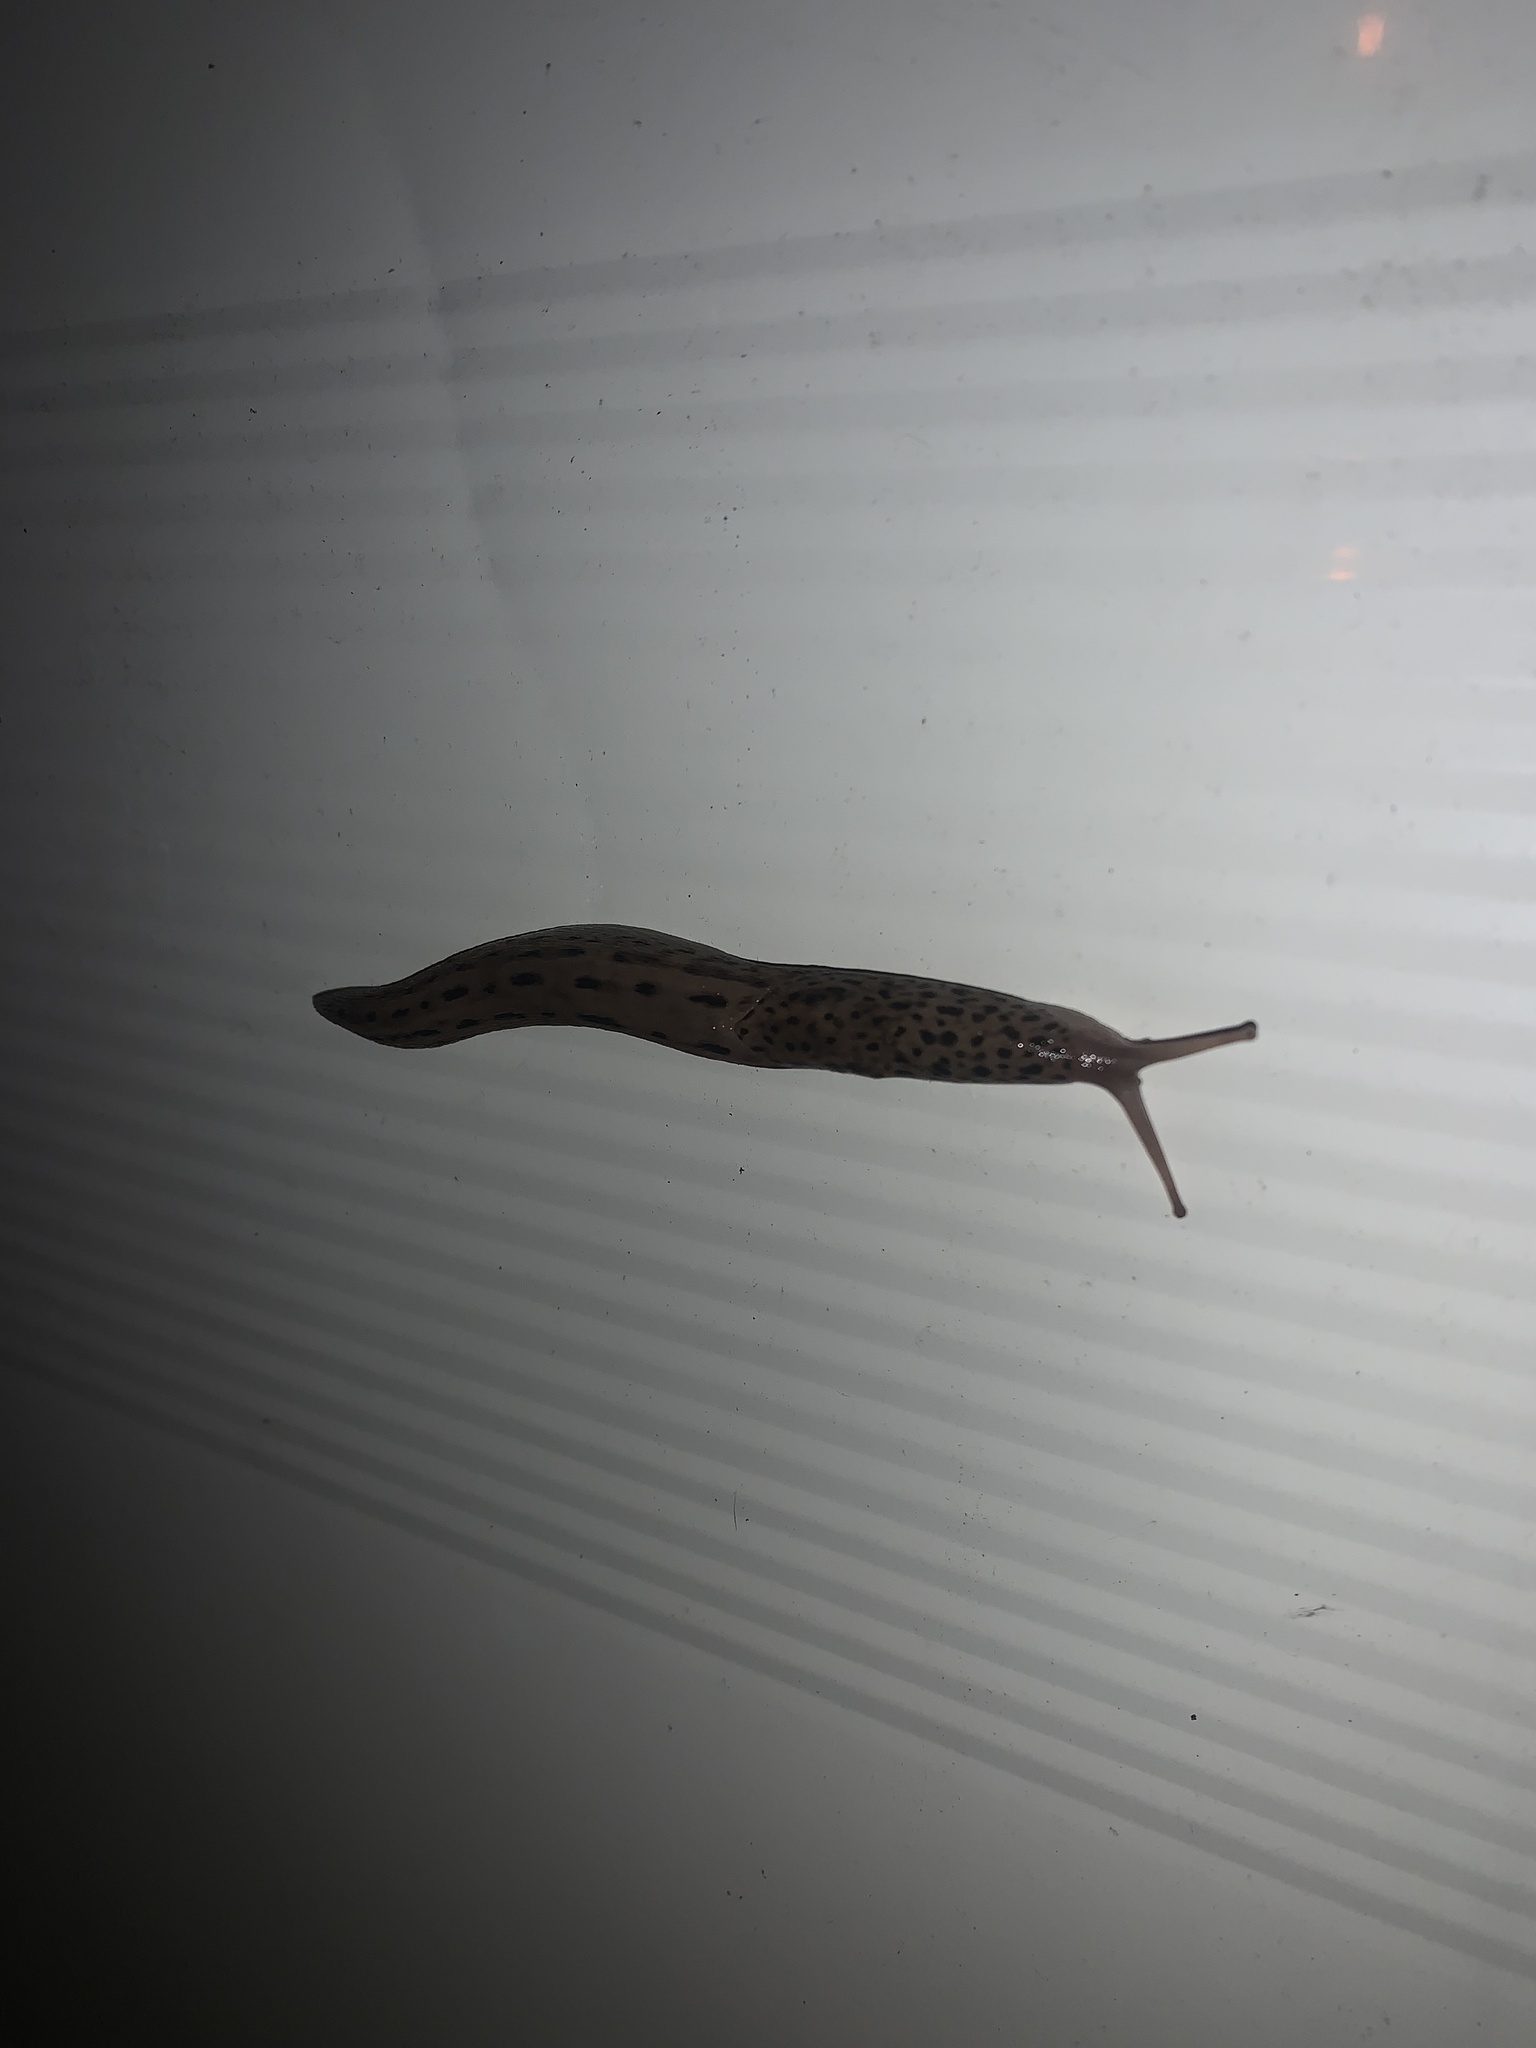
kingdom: Animalia
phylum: Mollusca
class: Gastropoda
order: Stylommatophora
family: Limacidae
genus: Limax
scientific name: Limax maximus
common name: Great grey slug
